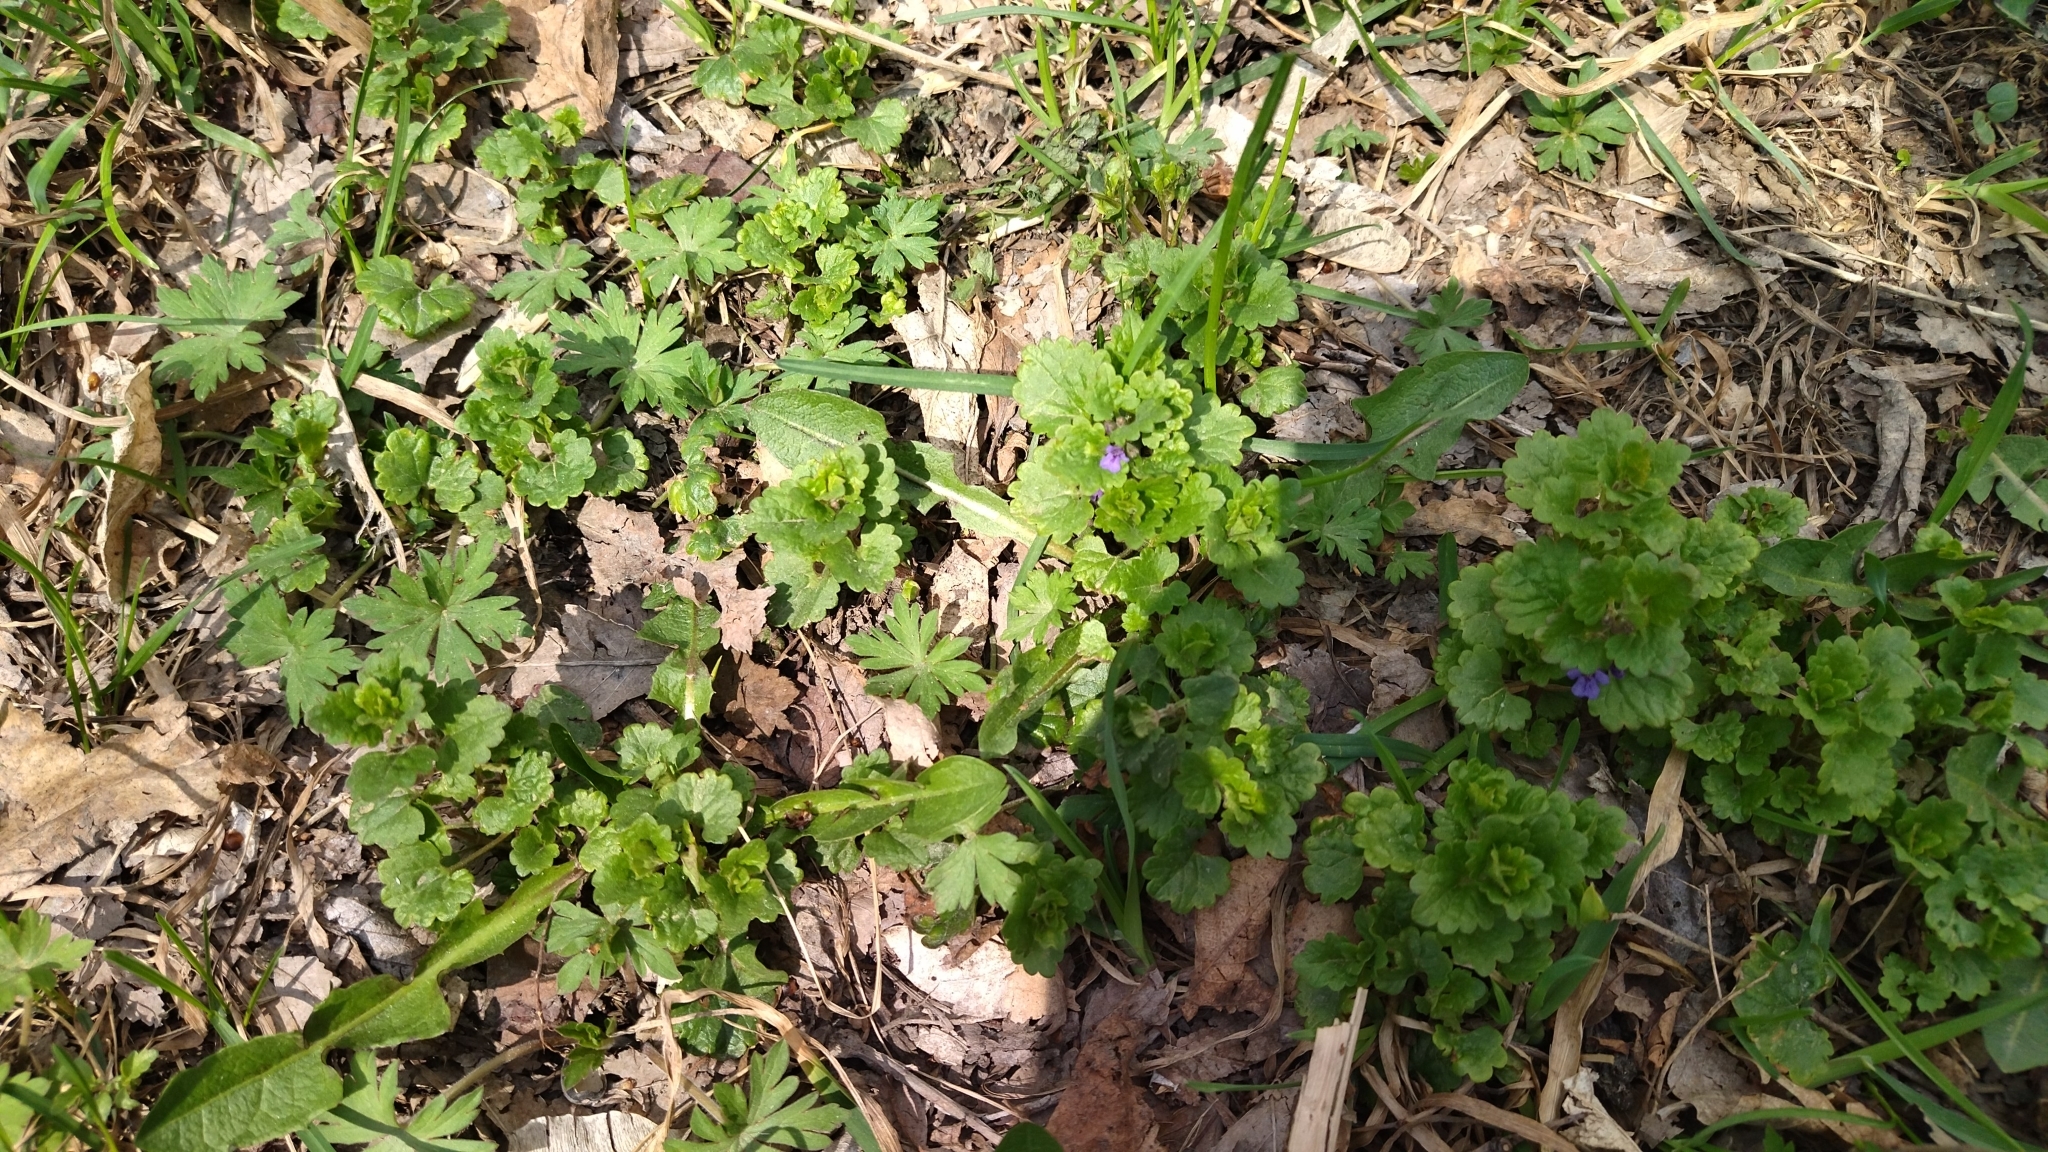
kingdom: Plantae
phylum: Tracheophyta
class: Magnoliopsida
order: Lamiales
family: Lamiaceae
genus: Glechoma
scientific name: Glechoma hederacea
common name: Ground ivy
